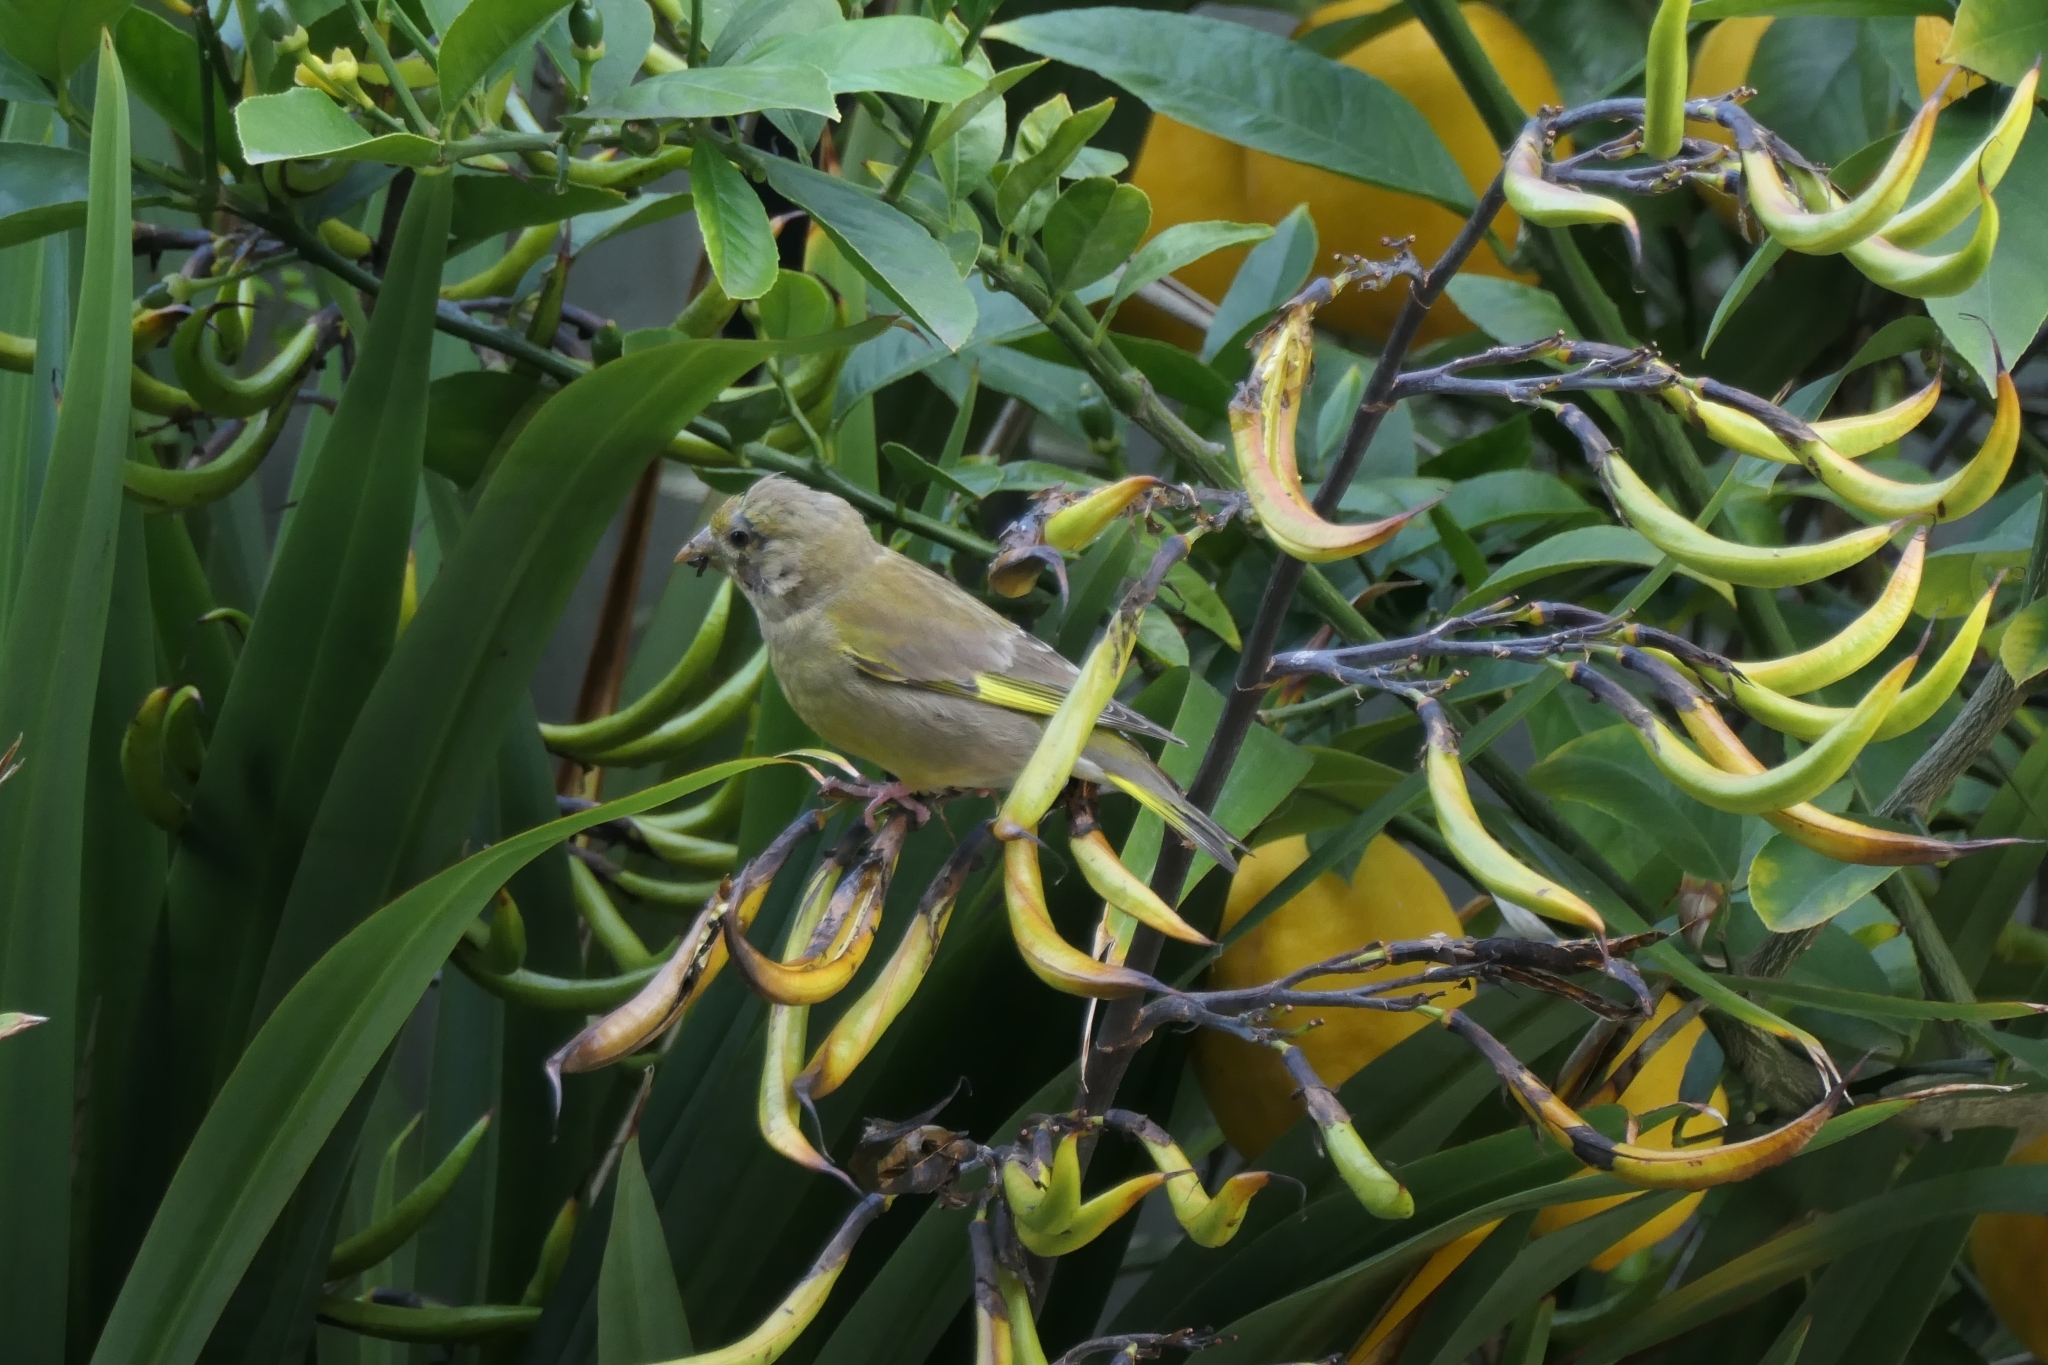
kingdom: Plantae
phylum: Tracheophyta
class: Liliopsida
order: Poales
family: Poaceae
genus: Chloris
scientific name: Chloris chloris
